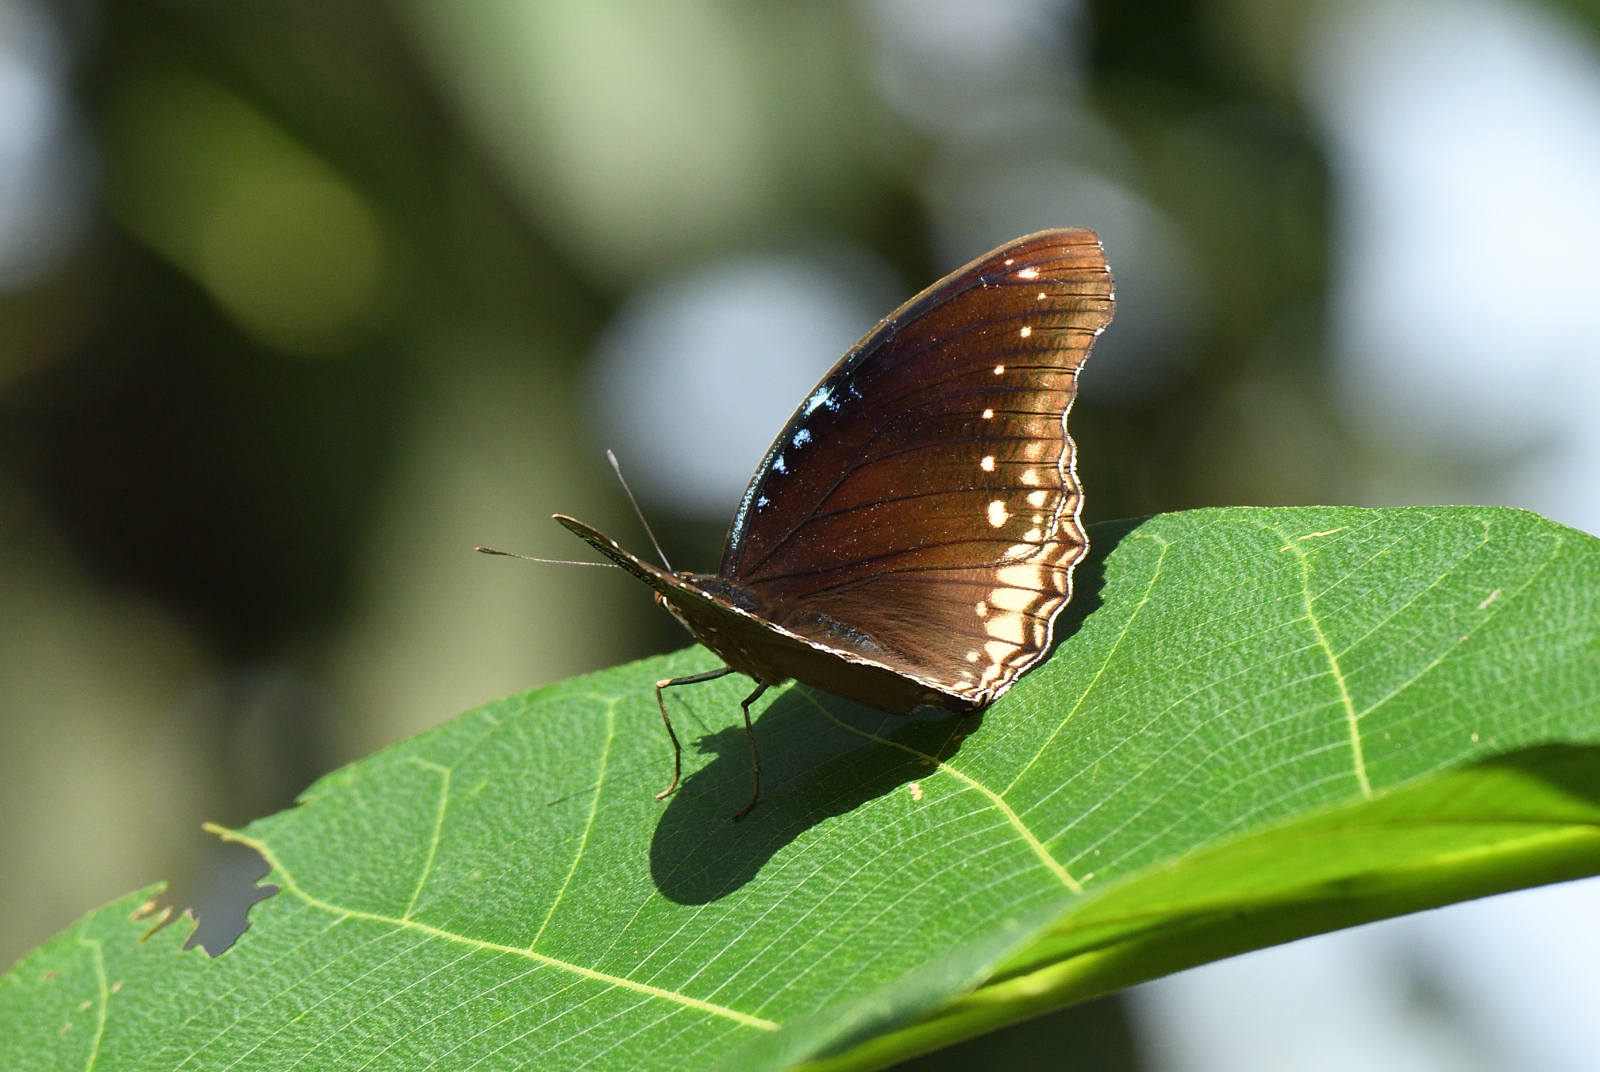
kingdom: Animalia
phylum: Arthropoda
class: Insecta
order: Lepidoptera
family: Nymphalidae
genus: Hypolimnas
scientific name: Hypolimnas bolina
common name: Great eggfly
